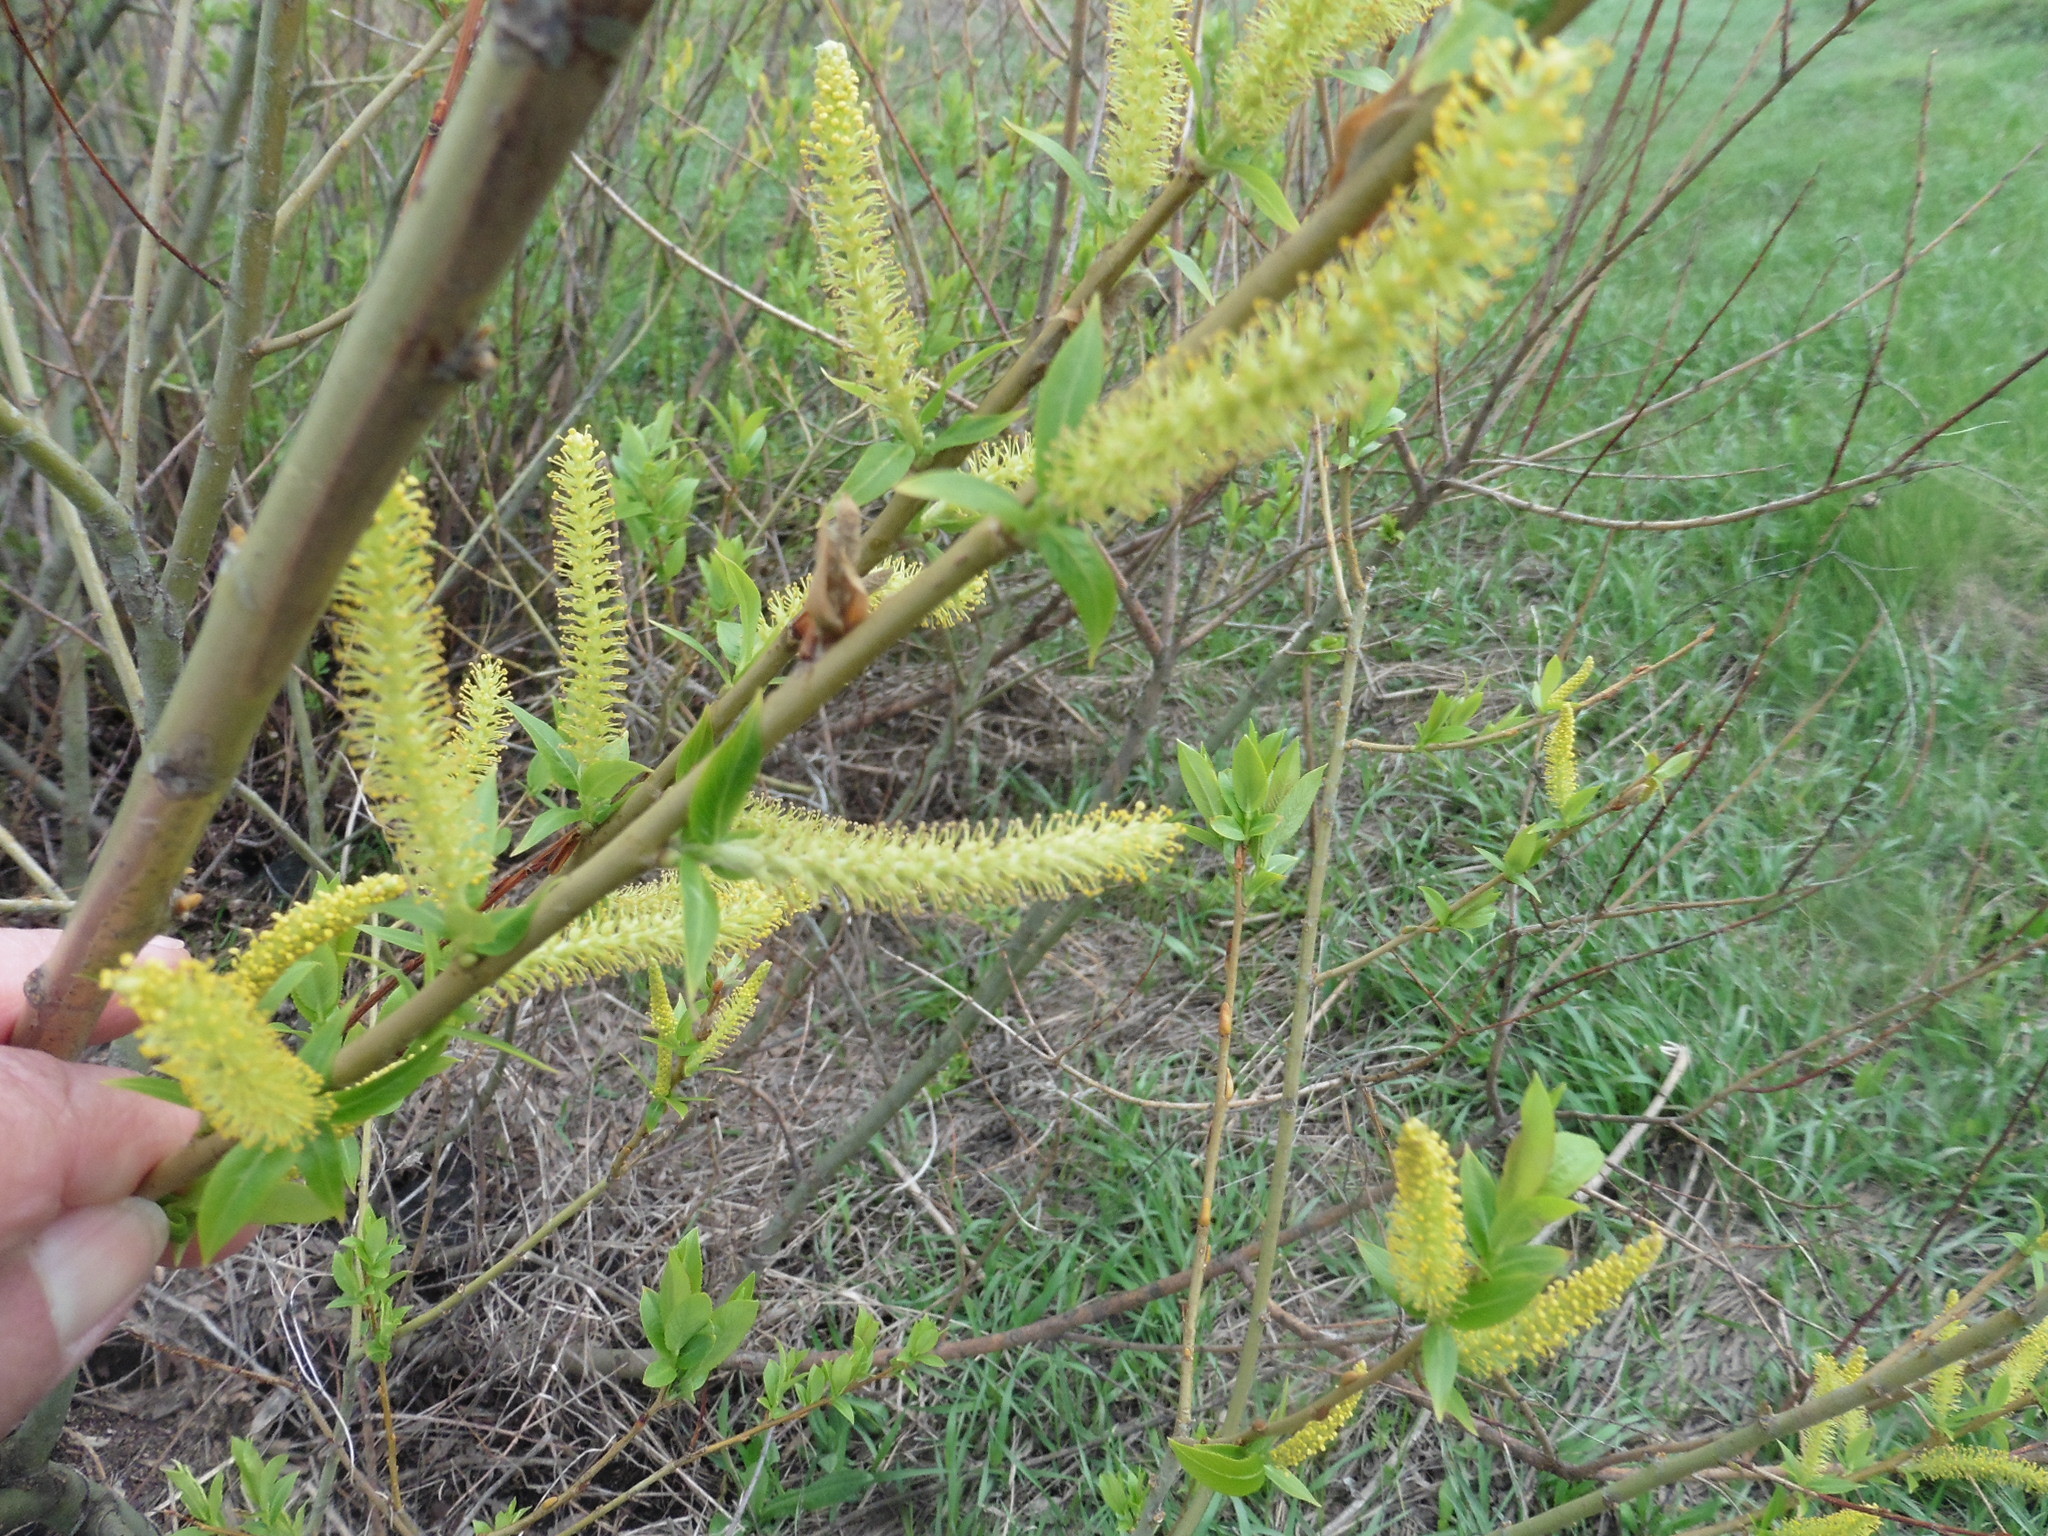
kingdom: Plantae
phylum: Tracheophyta
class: Magnoliopsida
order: Malpighiales
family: Salicaceae
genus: Salix
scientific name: Salix triandra
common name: Almond willow
